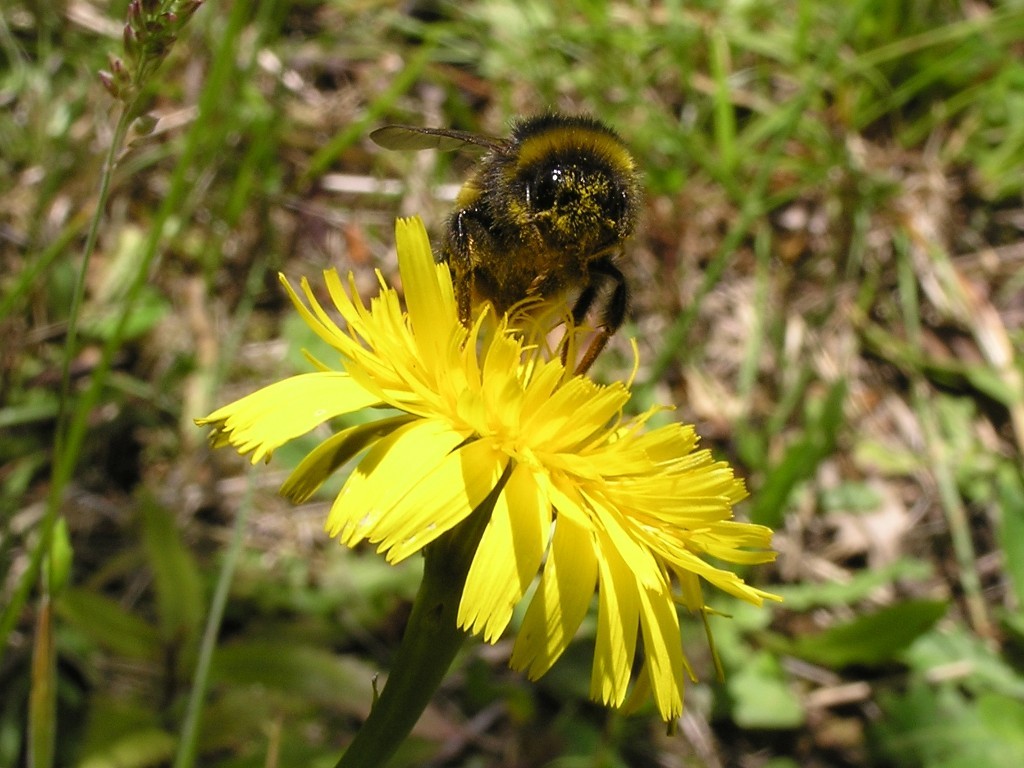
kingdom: Animalia
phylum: Arthropoda
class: Insecta
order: Hymenoptera
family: Apidae
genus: Bombus
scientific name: Bombus terrestris
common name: Buff-tailed bumblebee
